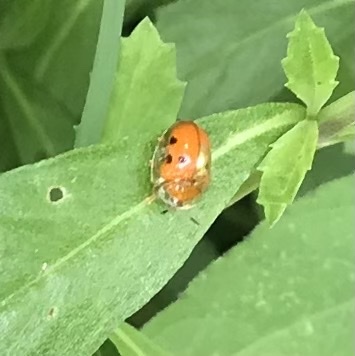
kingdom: Animalia
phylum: Arthropoda
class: Insecta
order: Coleoptera
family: Chrysomelidae
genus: Charidotella
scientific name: Charidotella sexpunctata
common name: Golden tortoise beetle
